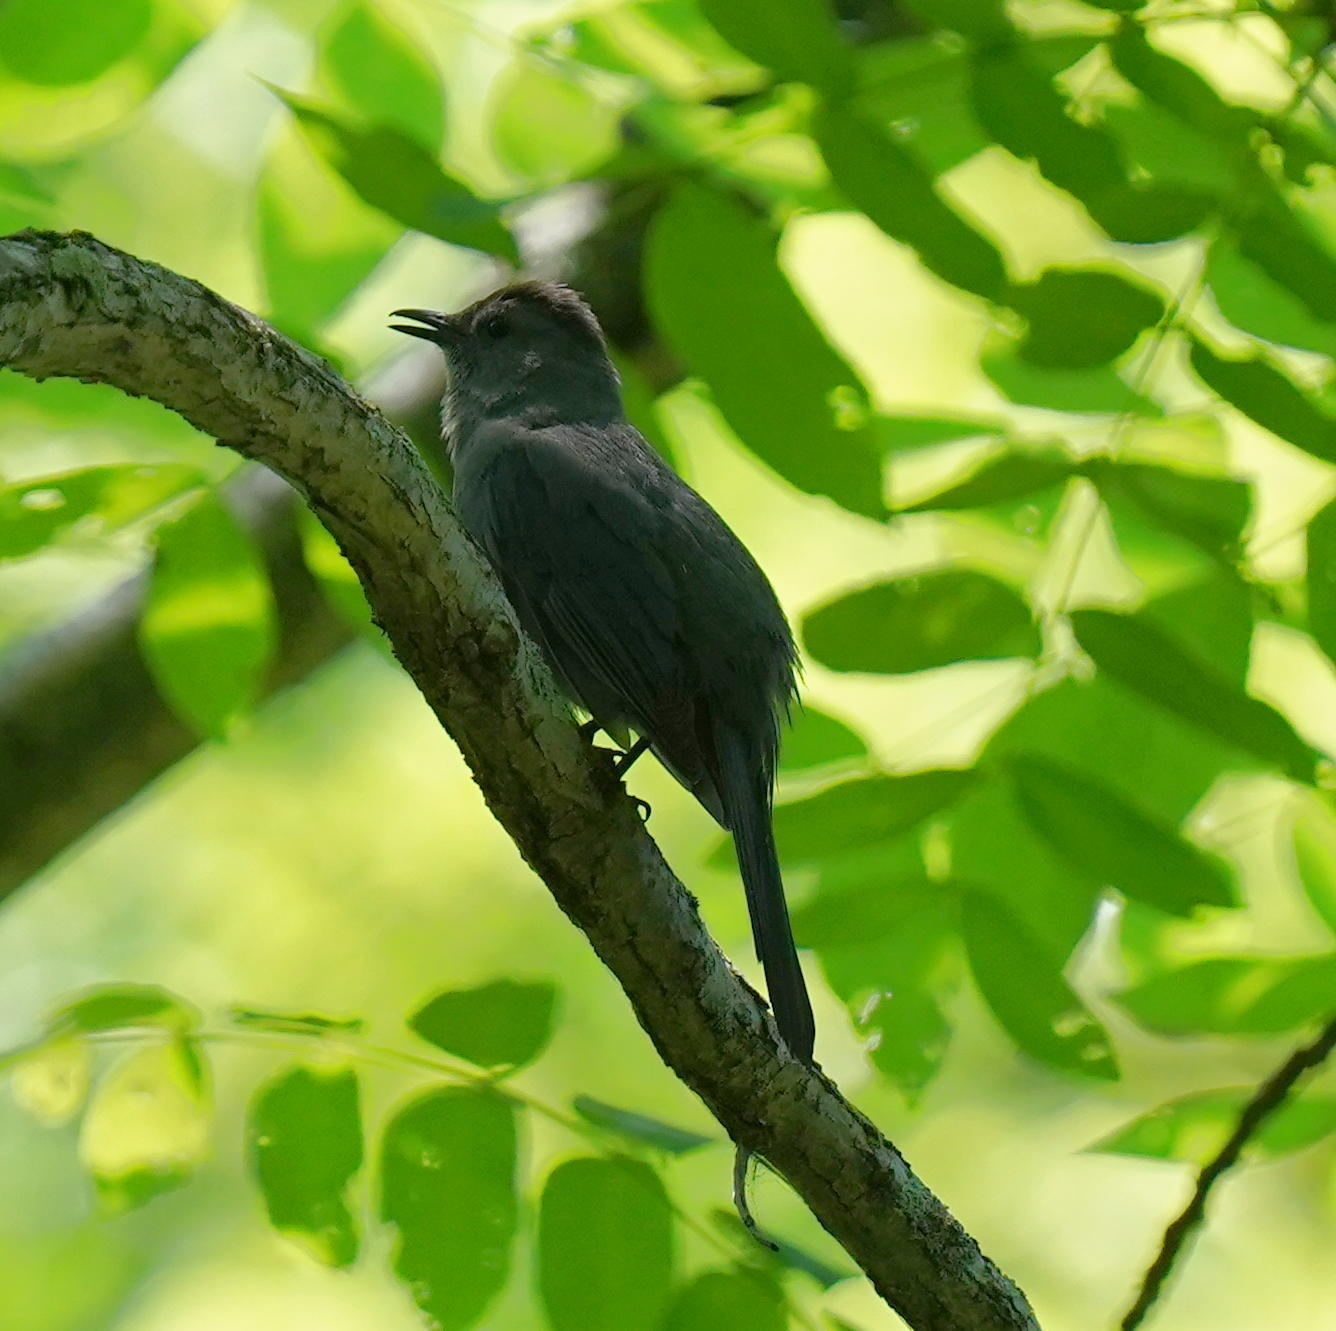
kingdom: Animalia
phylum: Chordata
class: Aves
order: Passeriformes
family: Mimidae
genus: Dumetella
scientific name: Dumetella carolinensis
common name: Gray catbird
